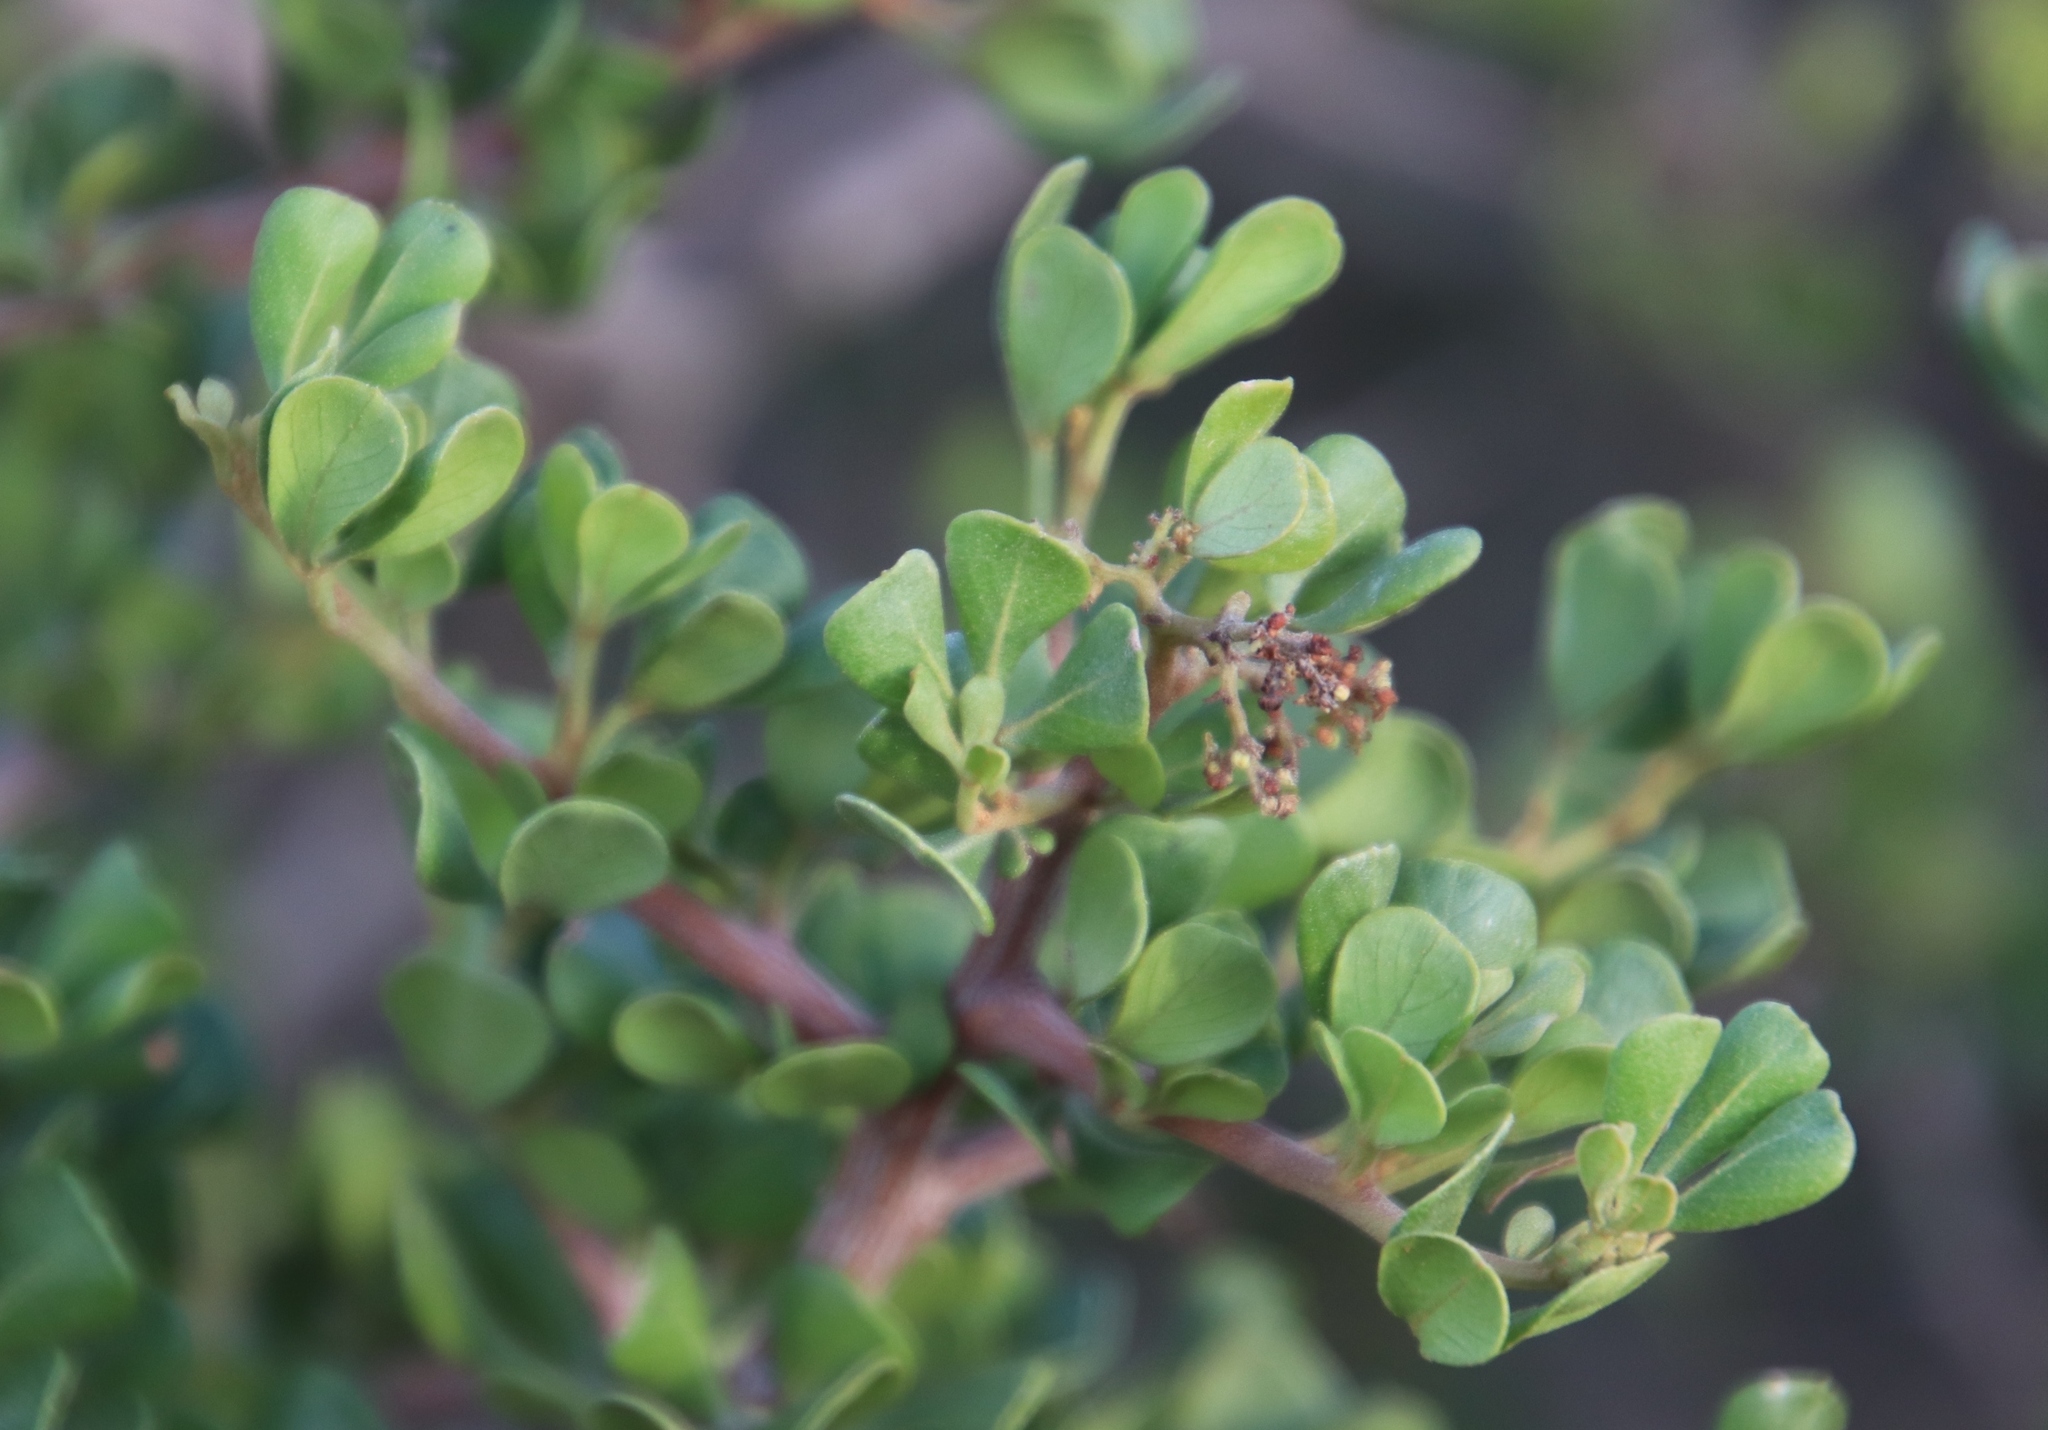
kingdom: Plantae
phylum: Tracheophyta
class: Magnoliopsida
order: Sapindales
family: Anacardiaceae
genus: Searsia
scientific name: Searsia glauca
